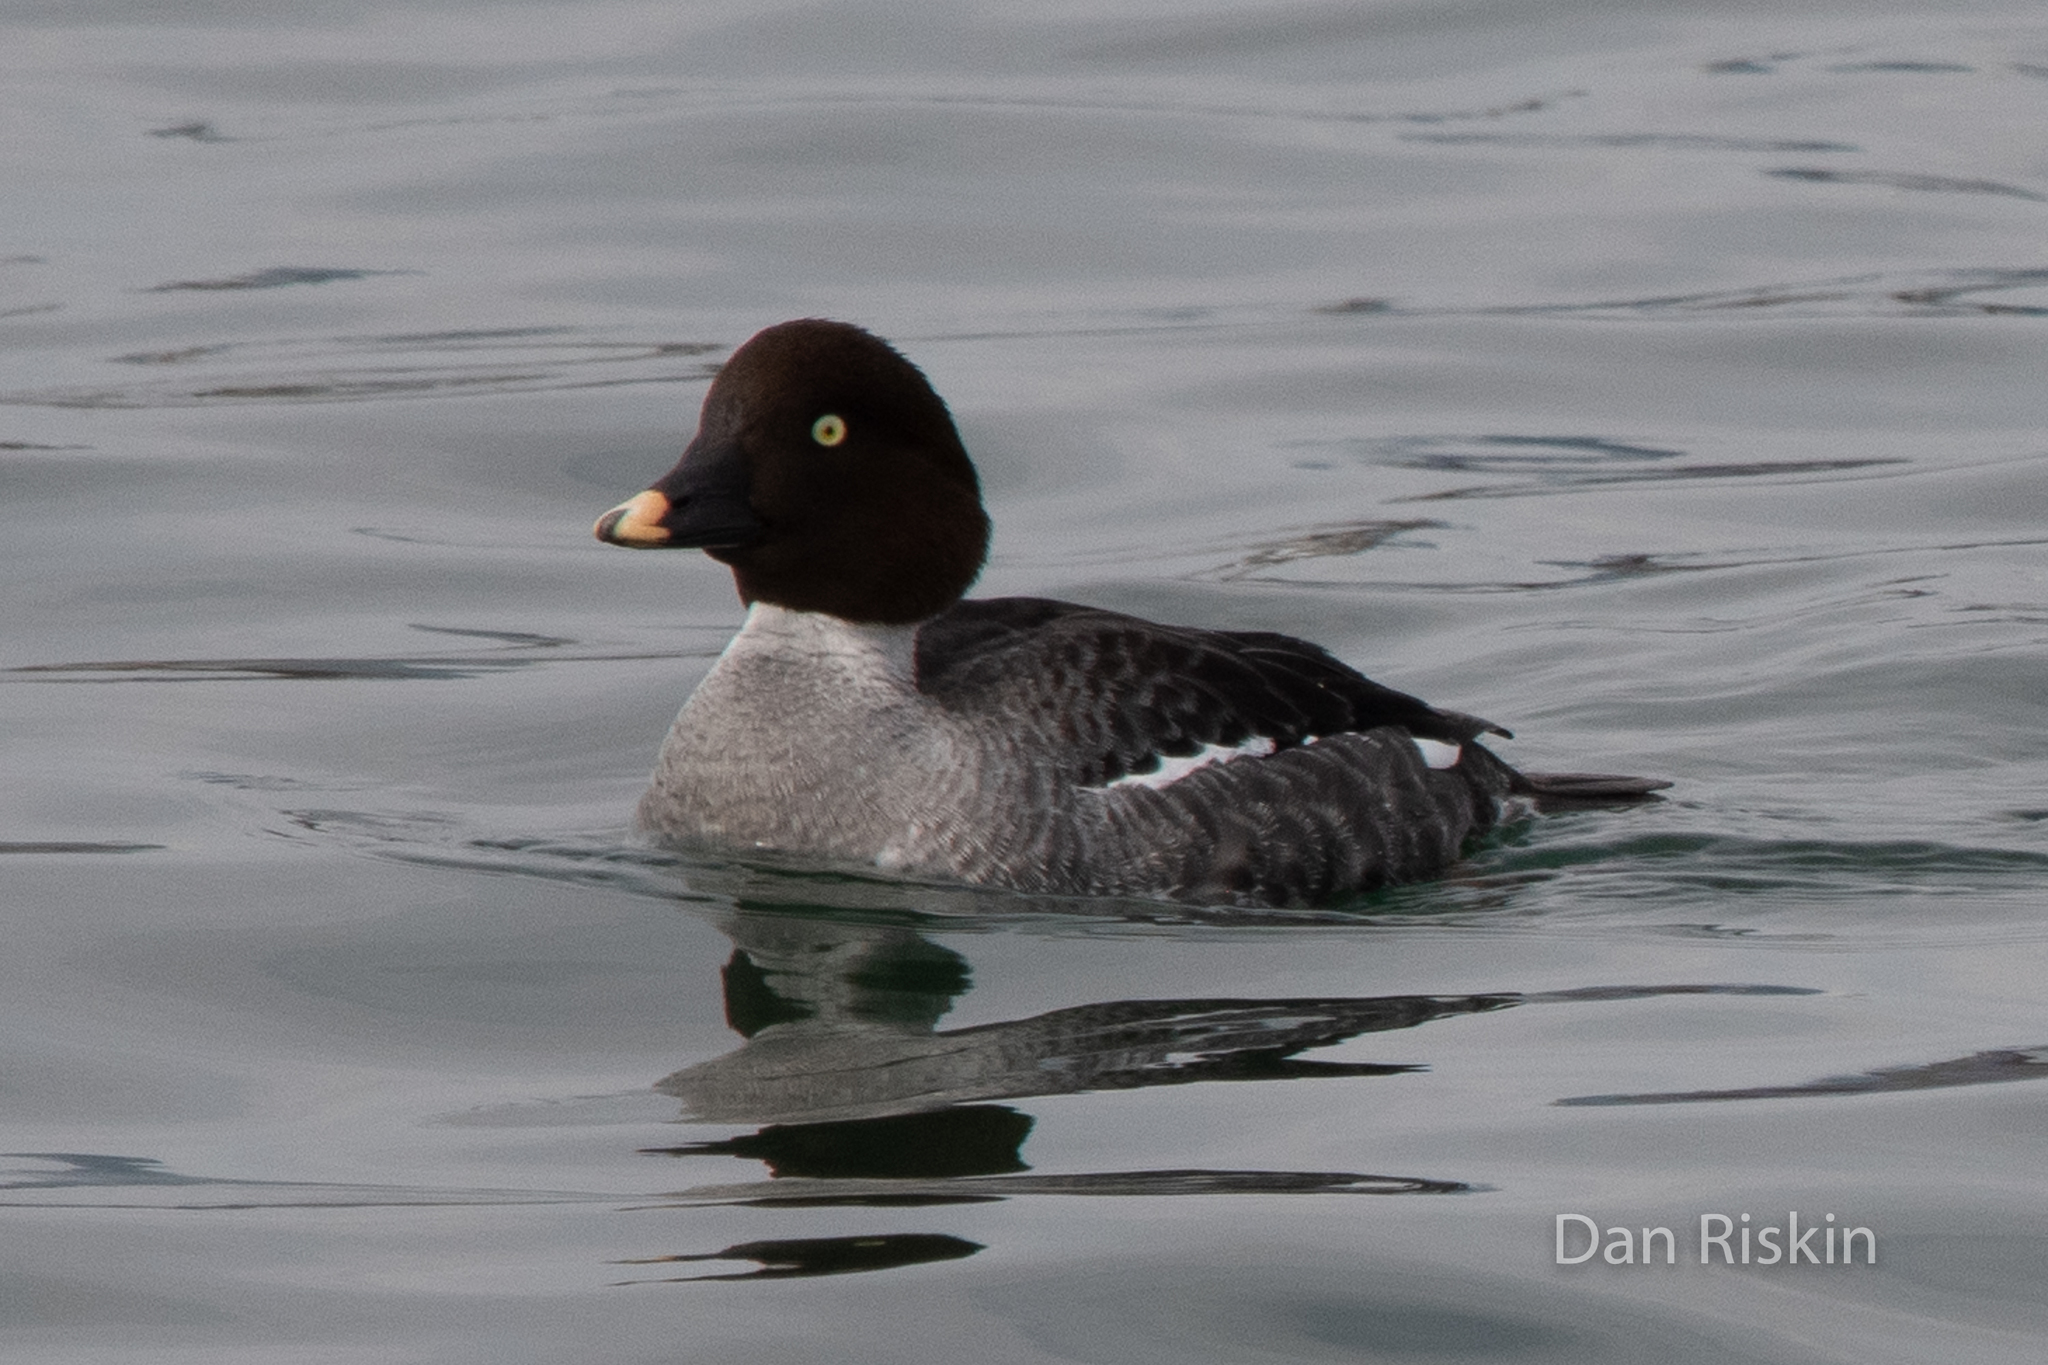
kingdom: Animalia
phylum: Chordata
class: Aves
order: Anseriformes
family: Anatidae
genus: Bucephala
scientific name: Bucephala clangula
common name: Common goldeneye
